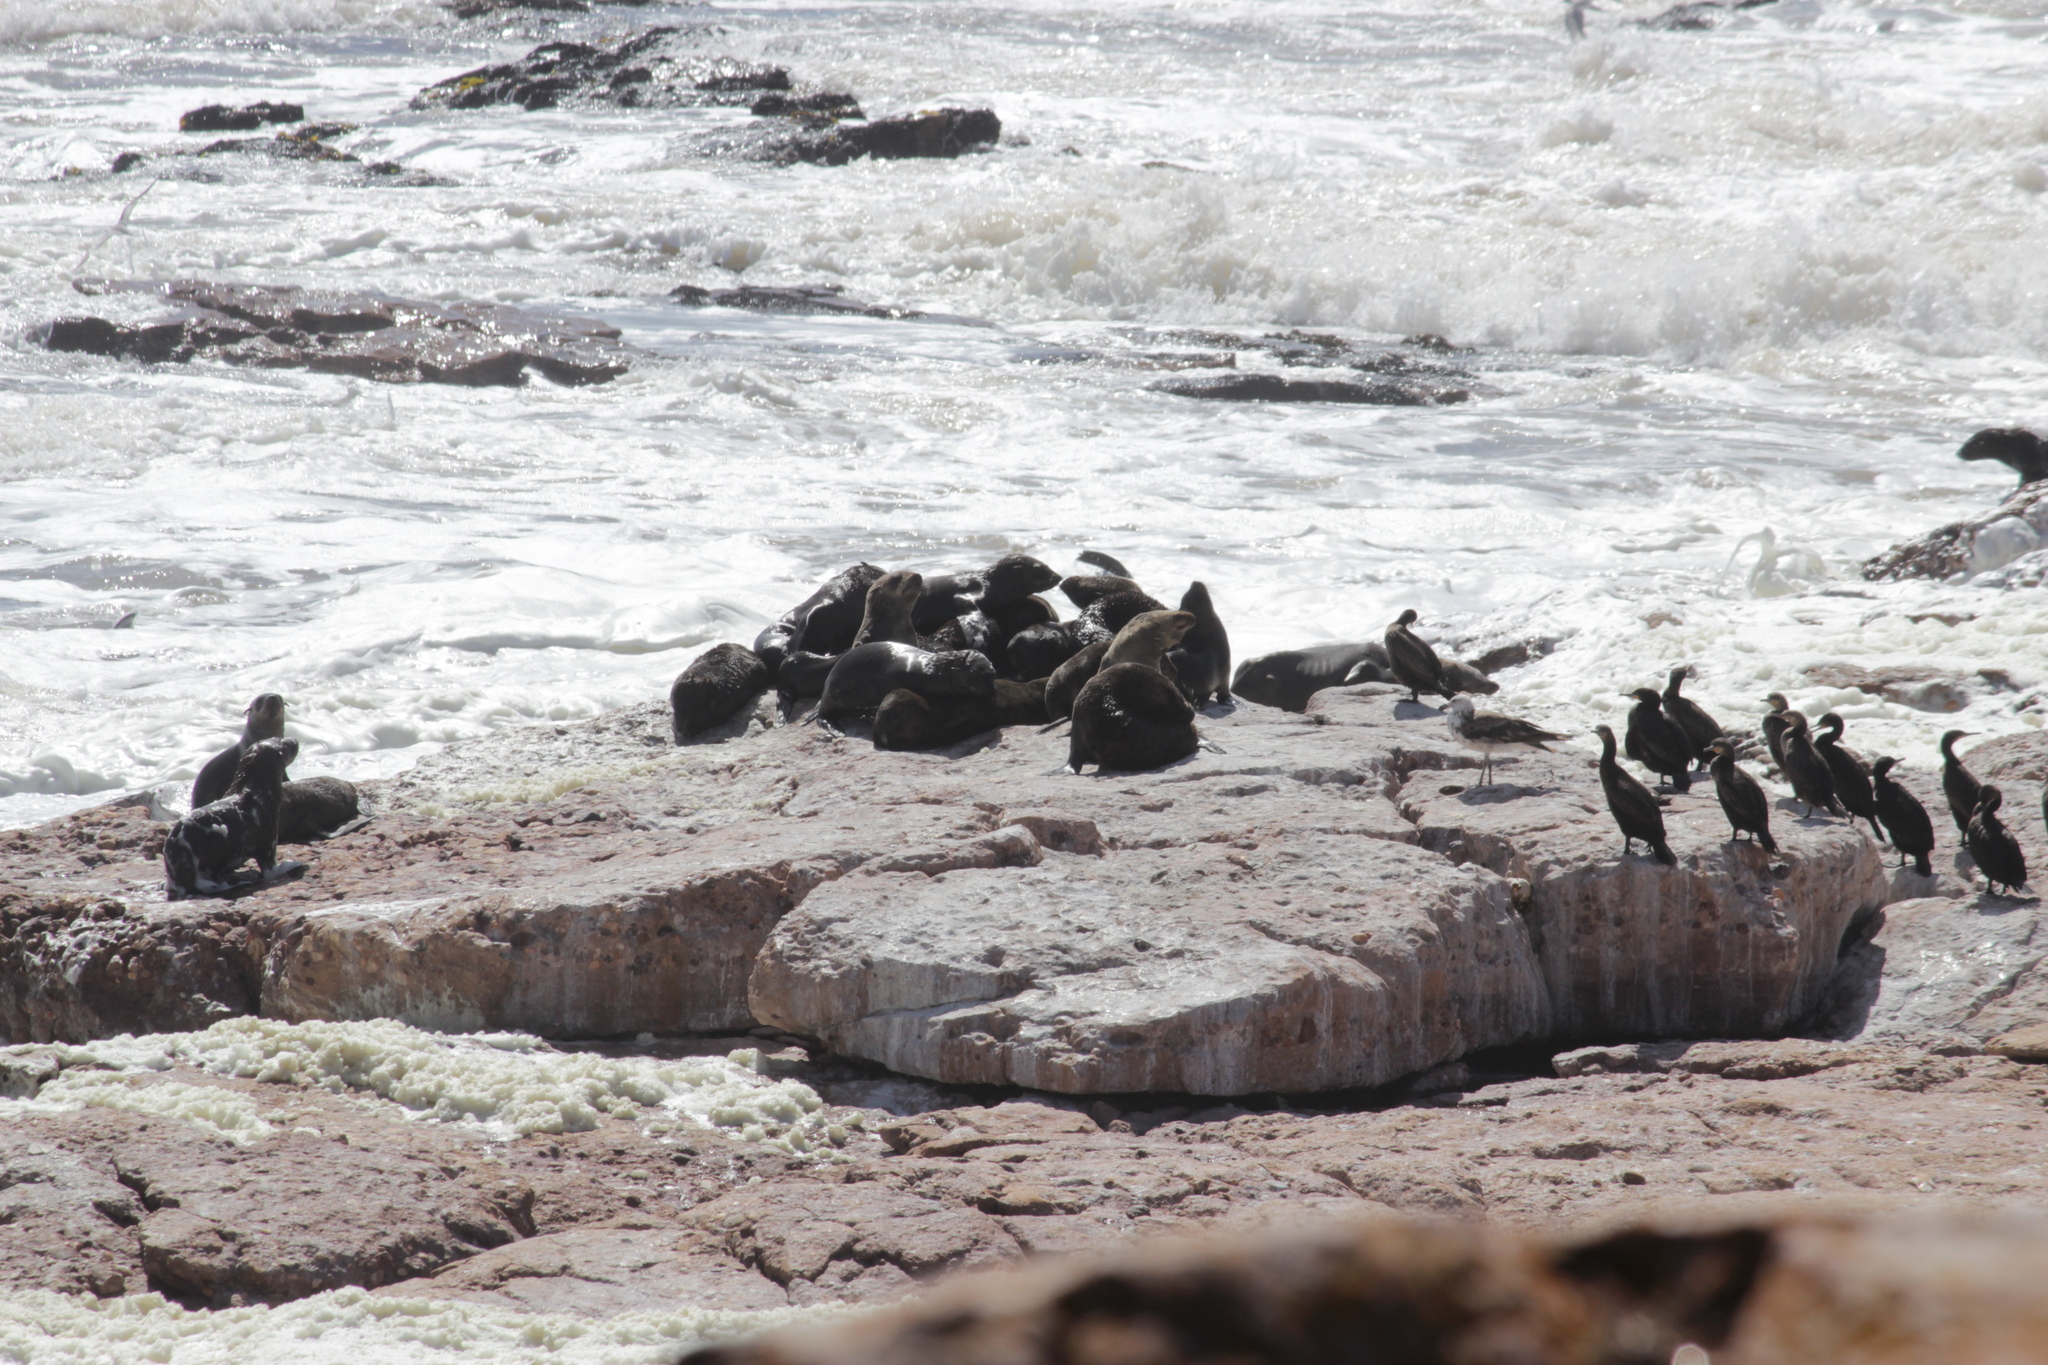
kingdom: Animalia
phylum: Chordata
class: Mammalia
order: Carnivora
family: Otariidae
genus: Arctocephalus
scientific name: Arctocephalus pusillus
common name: Brown fur seal
